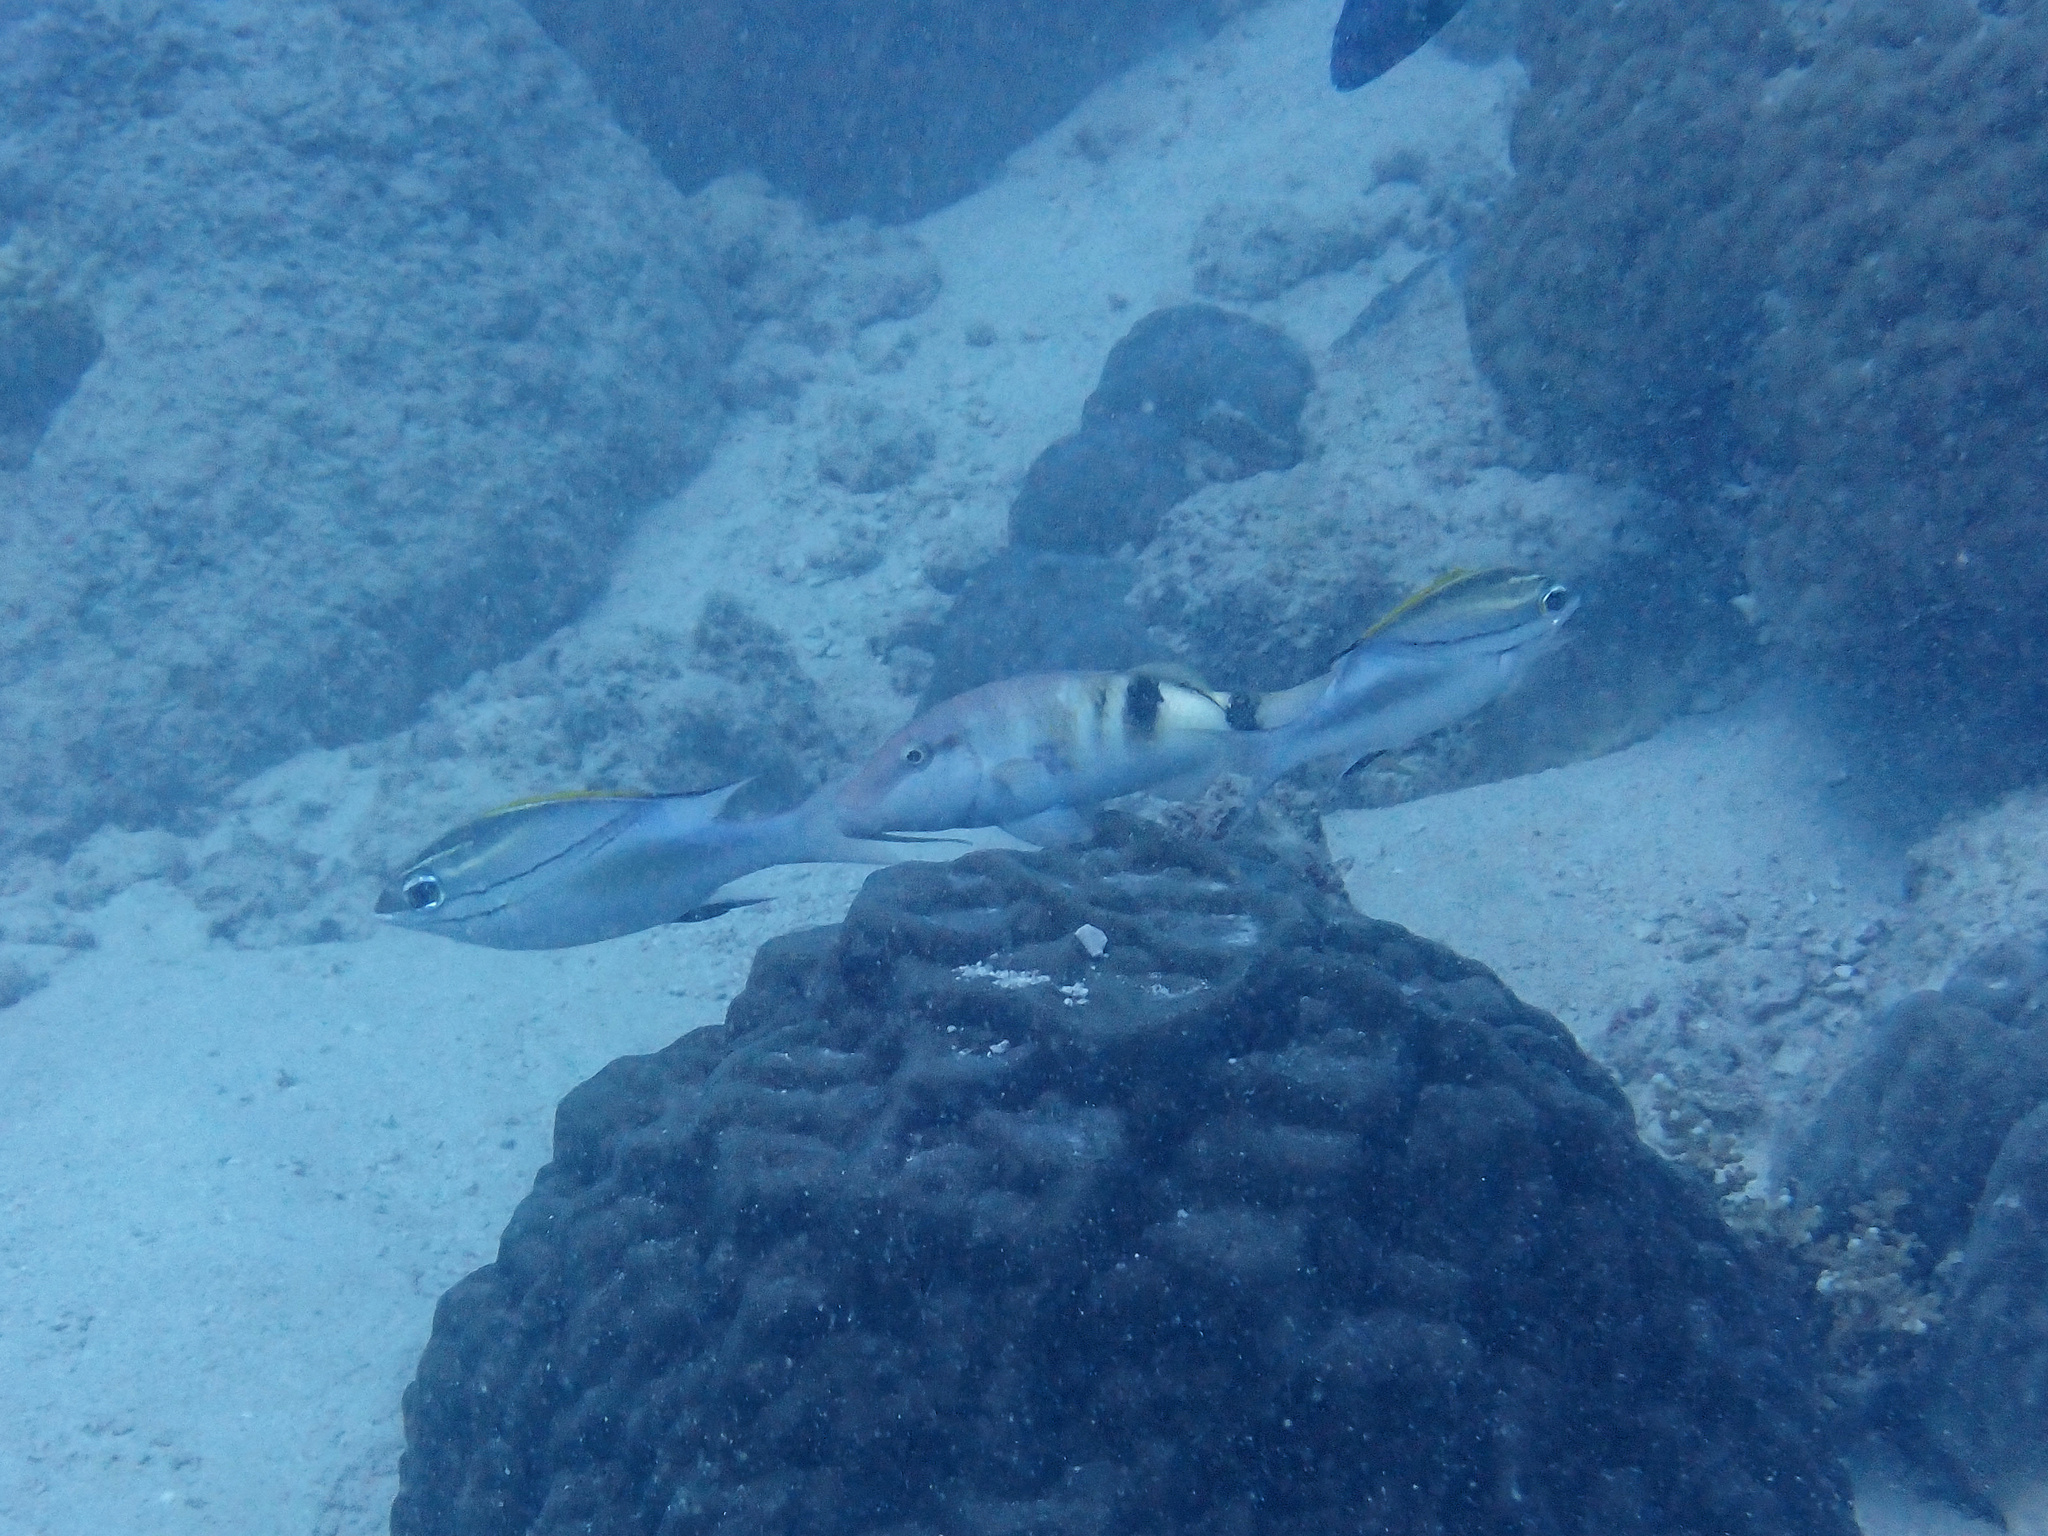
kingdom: Animalia
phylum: Chordata
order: Perciformes
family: Mullidae
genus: Parupeneus
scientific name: Parupeneus multifasciatus
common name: Manybar goatfish
